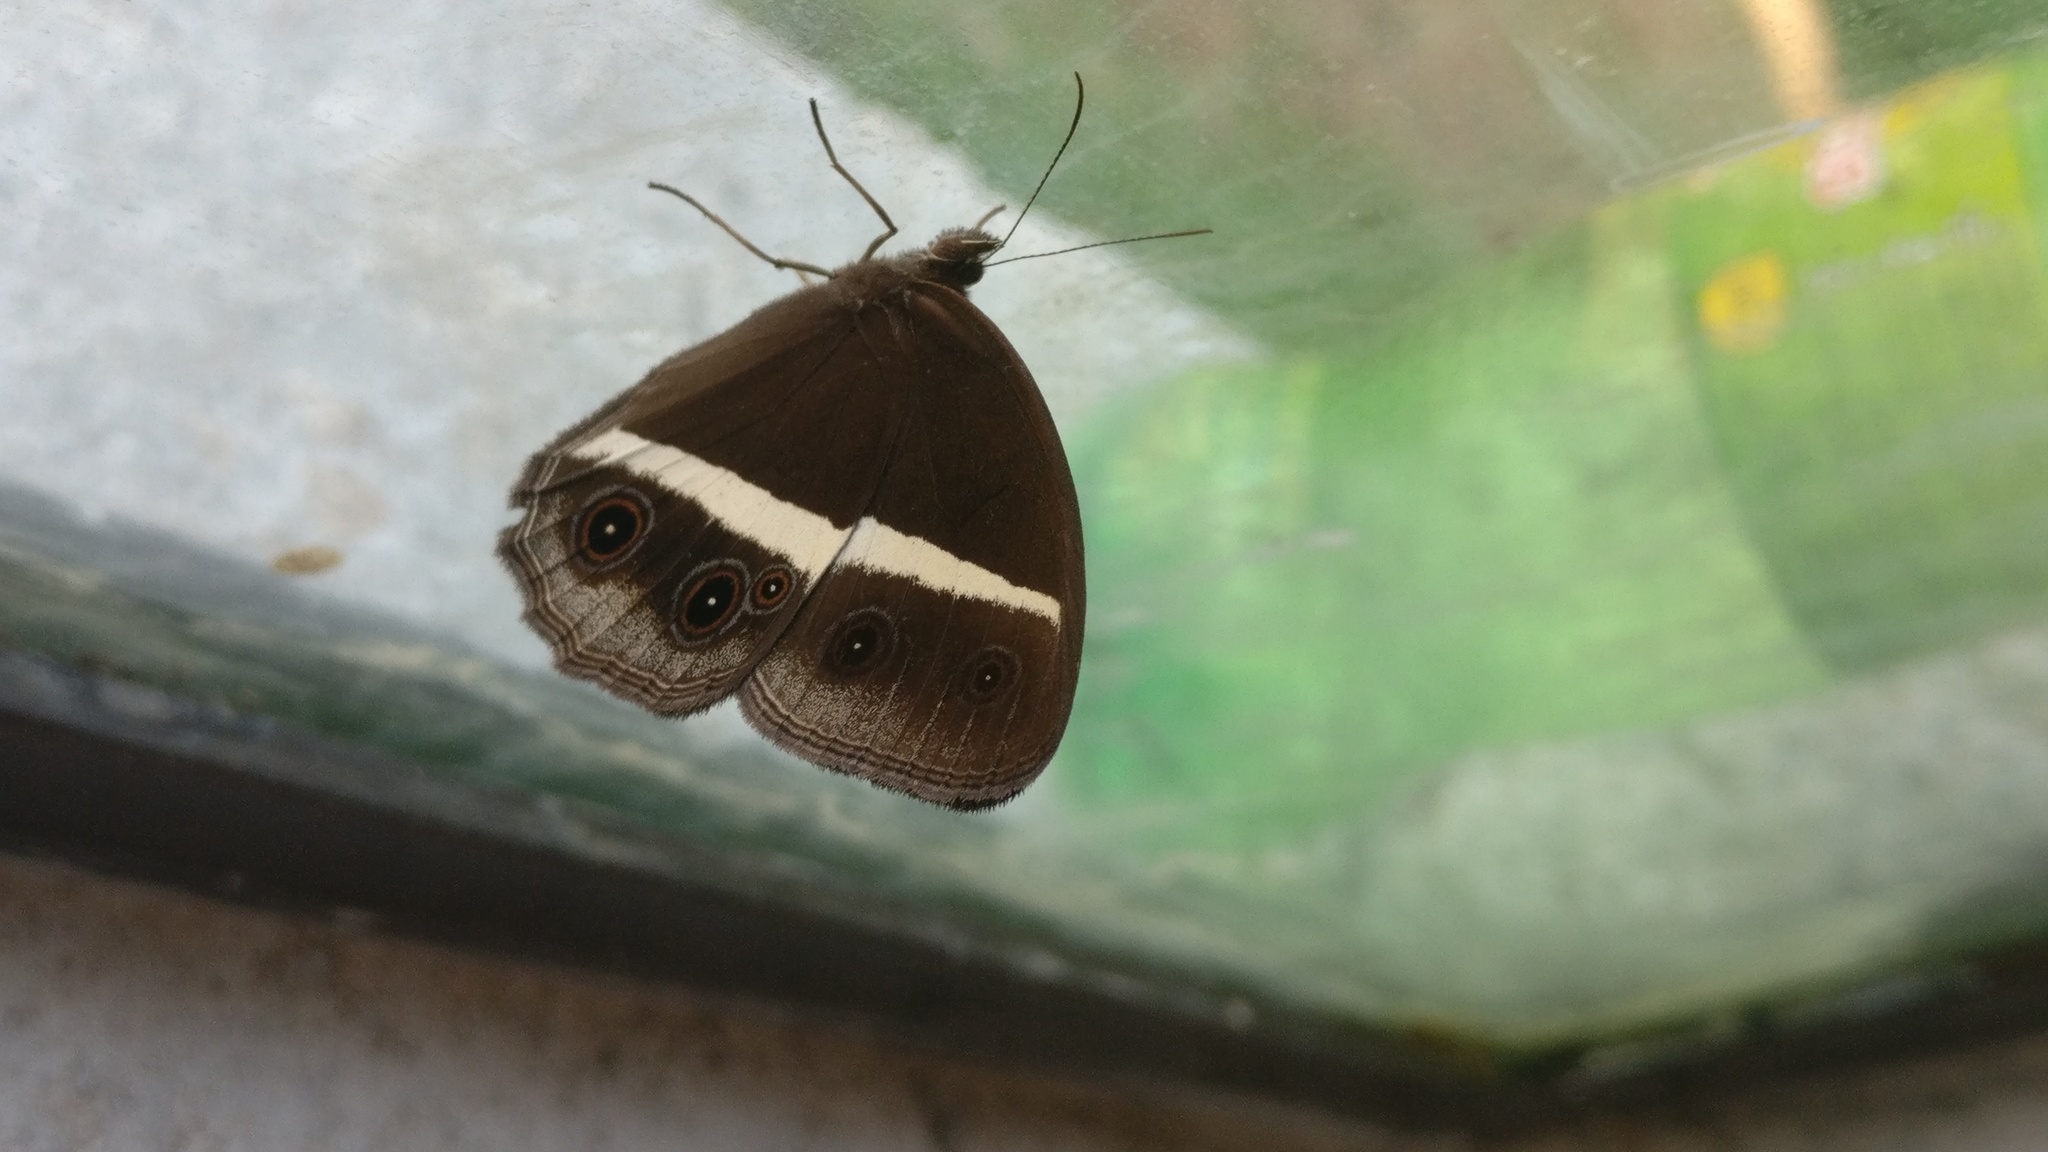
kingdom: Animalia
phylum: Arthropoda
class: Insecta
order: Lepidoptera
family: Nymphalidae
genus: Orsotriaena
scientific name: Orsotriaena medus
